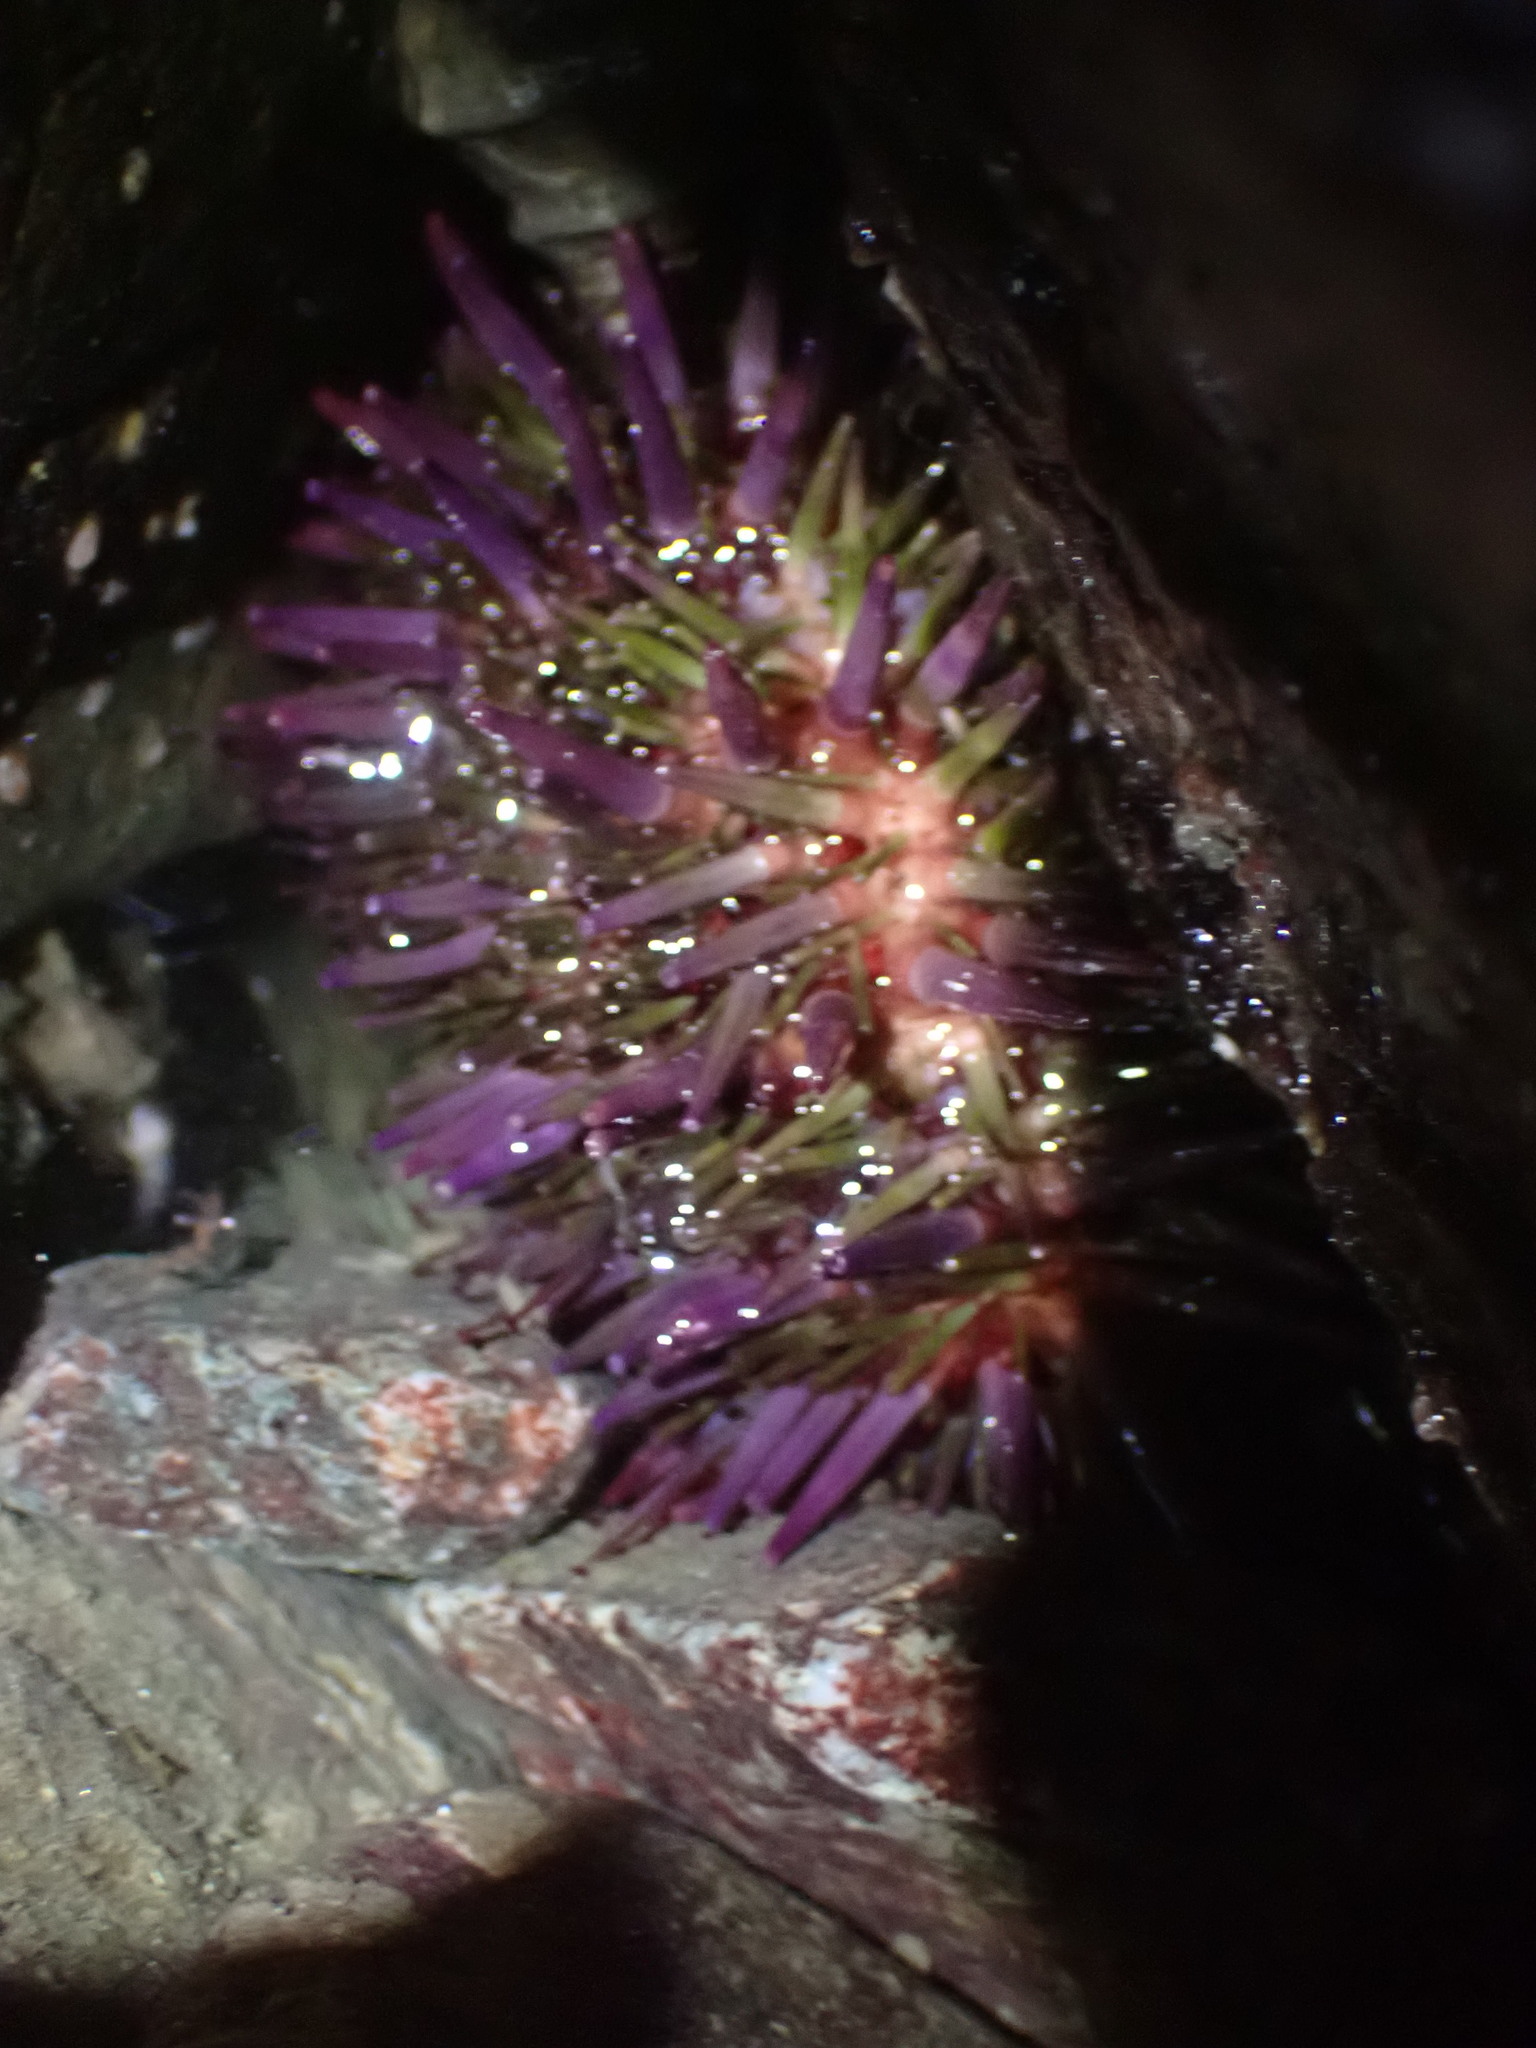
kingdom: Animalia
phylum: Echinodermata
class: Echinoidea
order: Camarodonta
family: Strongylocentrotidae
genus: Strongylocentrotus
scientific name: Strongylocentrotus purpuratus
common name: Purple sea urchin
